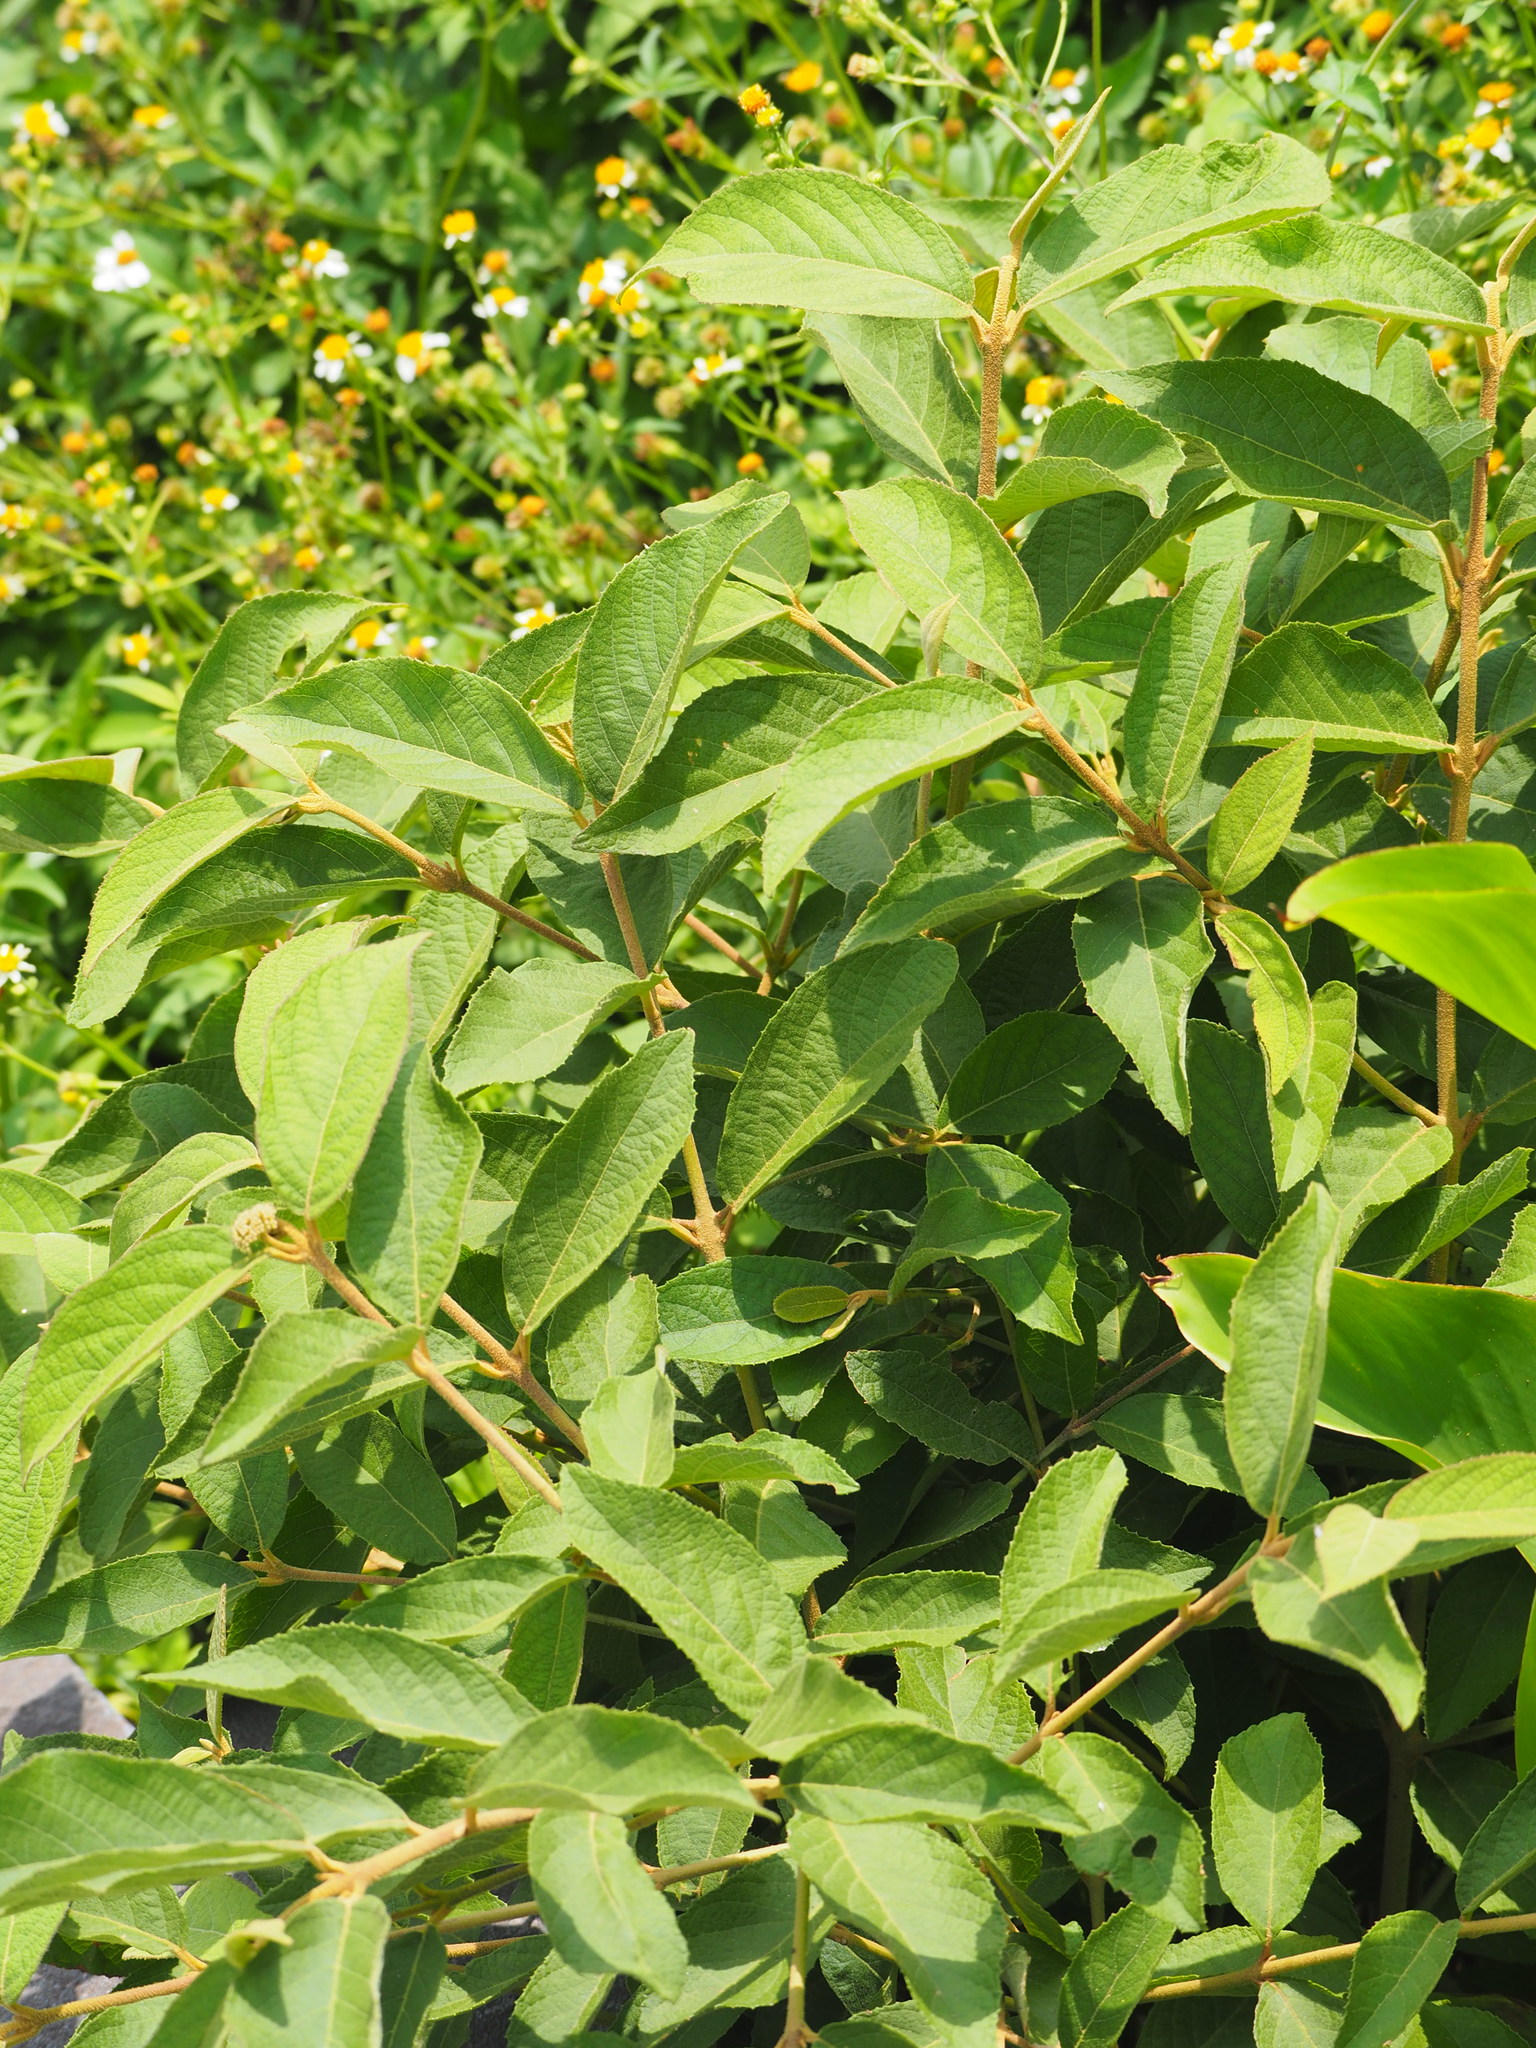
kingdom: Plantae
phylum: Tracheophyta
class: Magnoliopsida
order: Lamiales
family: Lamiaceae
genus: Callicarpa
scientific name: Callicarpa pedunculata
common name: Velvetleaf
